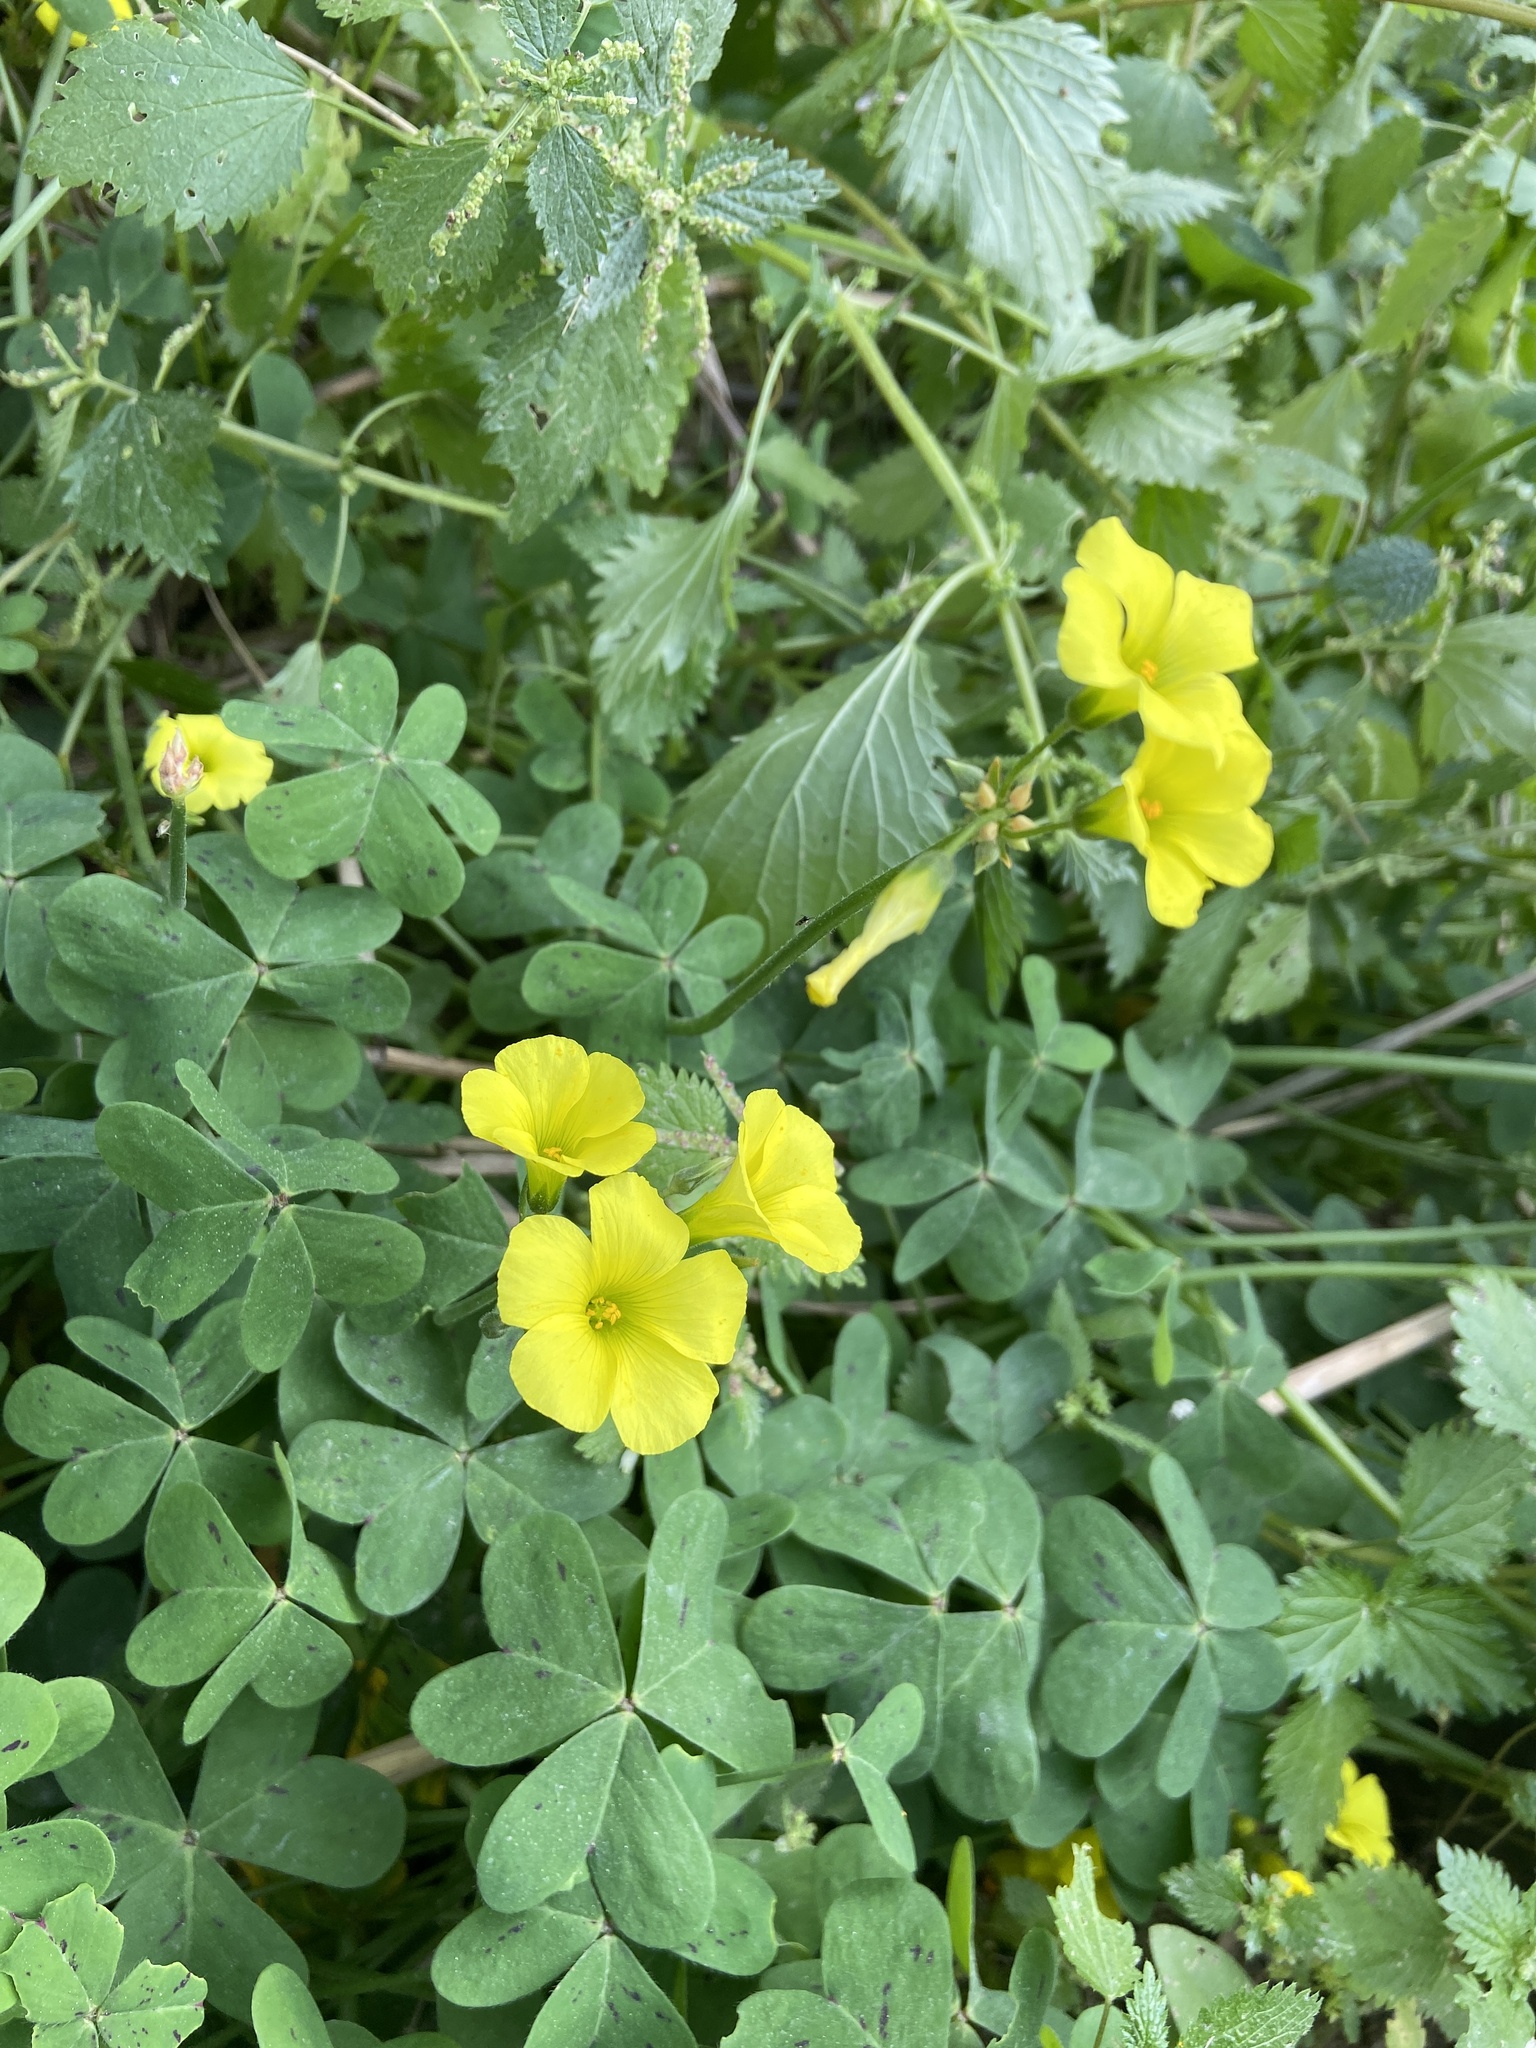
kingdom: Plantae
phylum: Tracheophyta
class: Magnoliopsida
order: Oxalidales
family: Oxalidaceae
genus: Oxalis
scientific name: Oxalis pes-caprae
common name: Bermuda-buttercup
